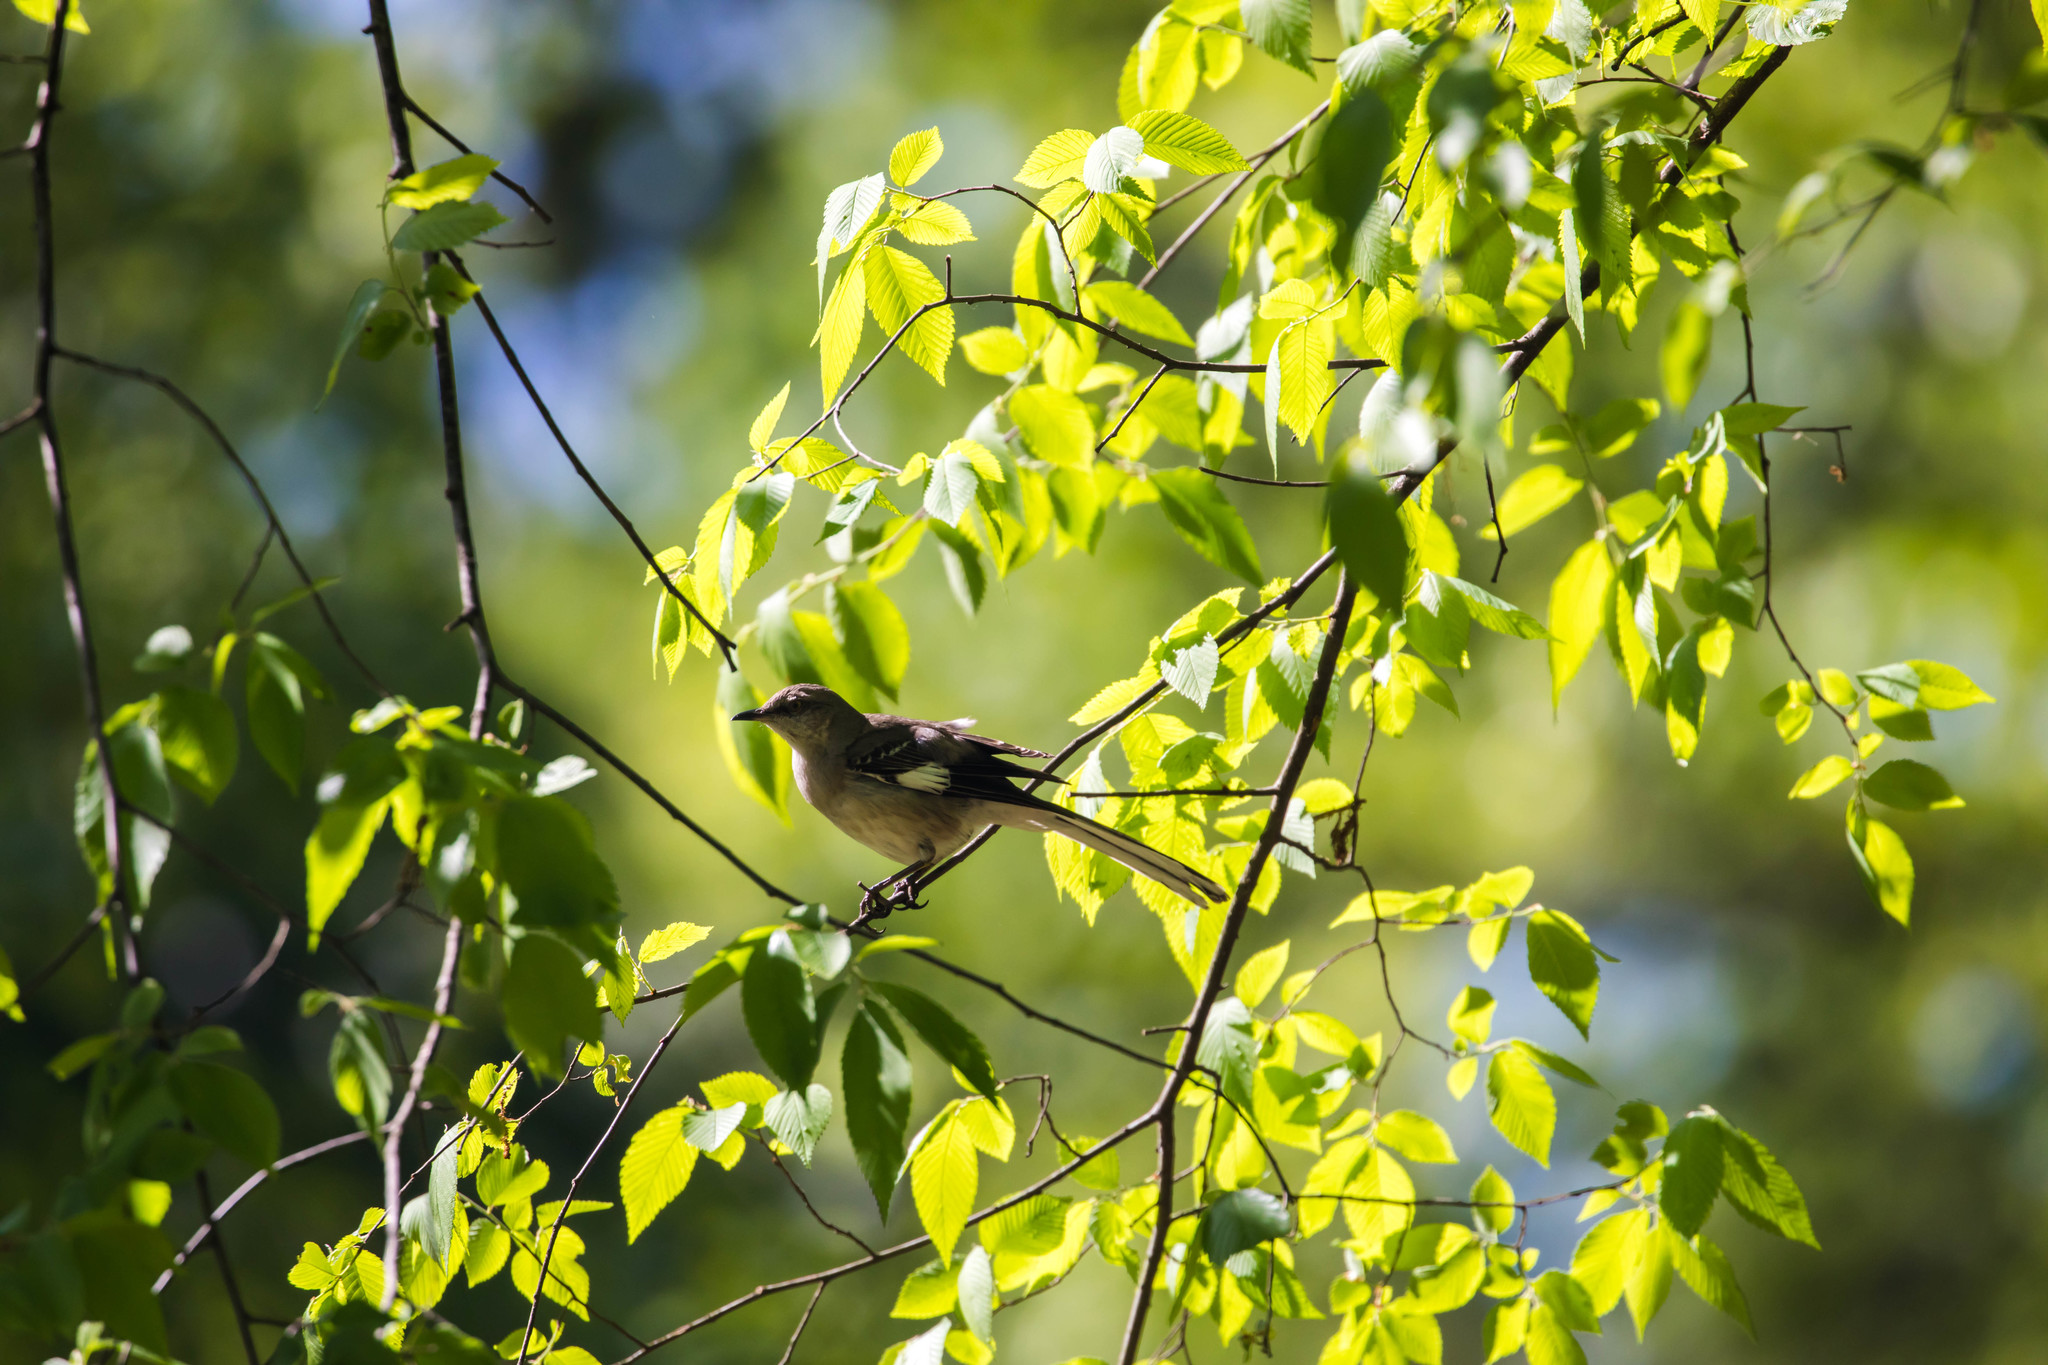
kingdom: Animalia
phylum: Chordata
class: Aves
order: Passeriformes
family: Mimidae
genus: Mimus
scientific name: Mimus polyglottos
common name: Northern mockingbird
